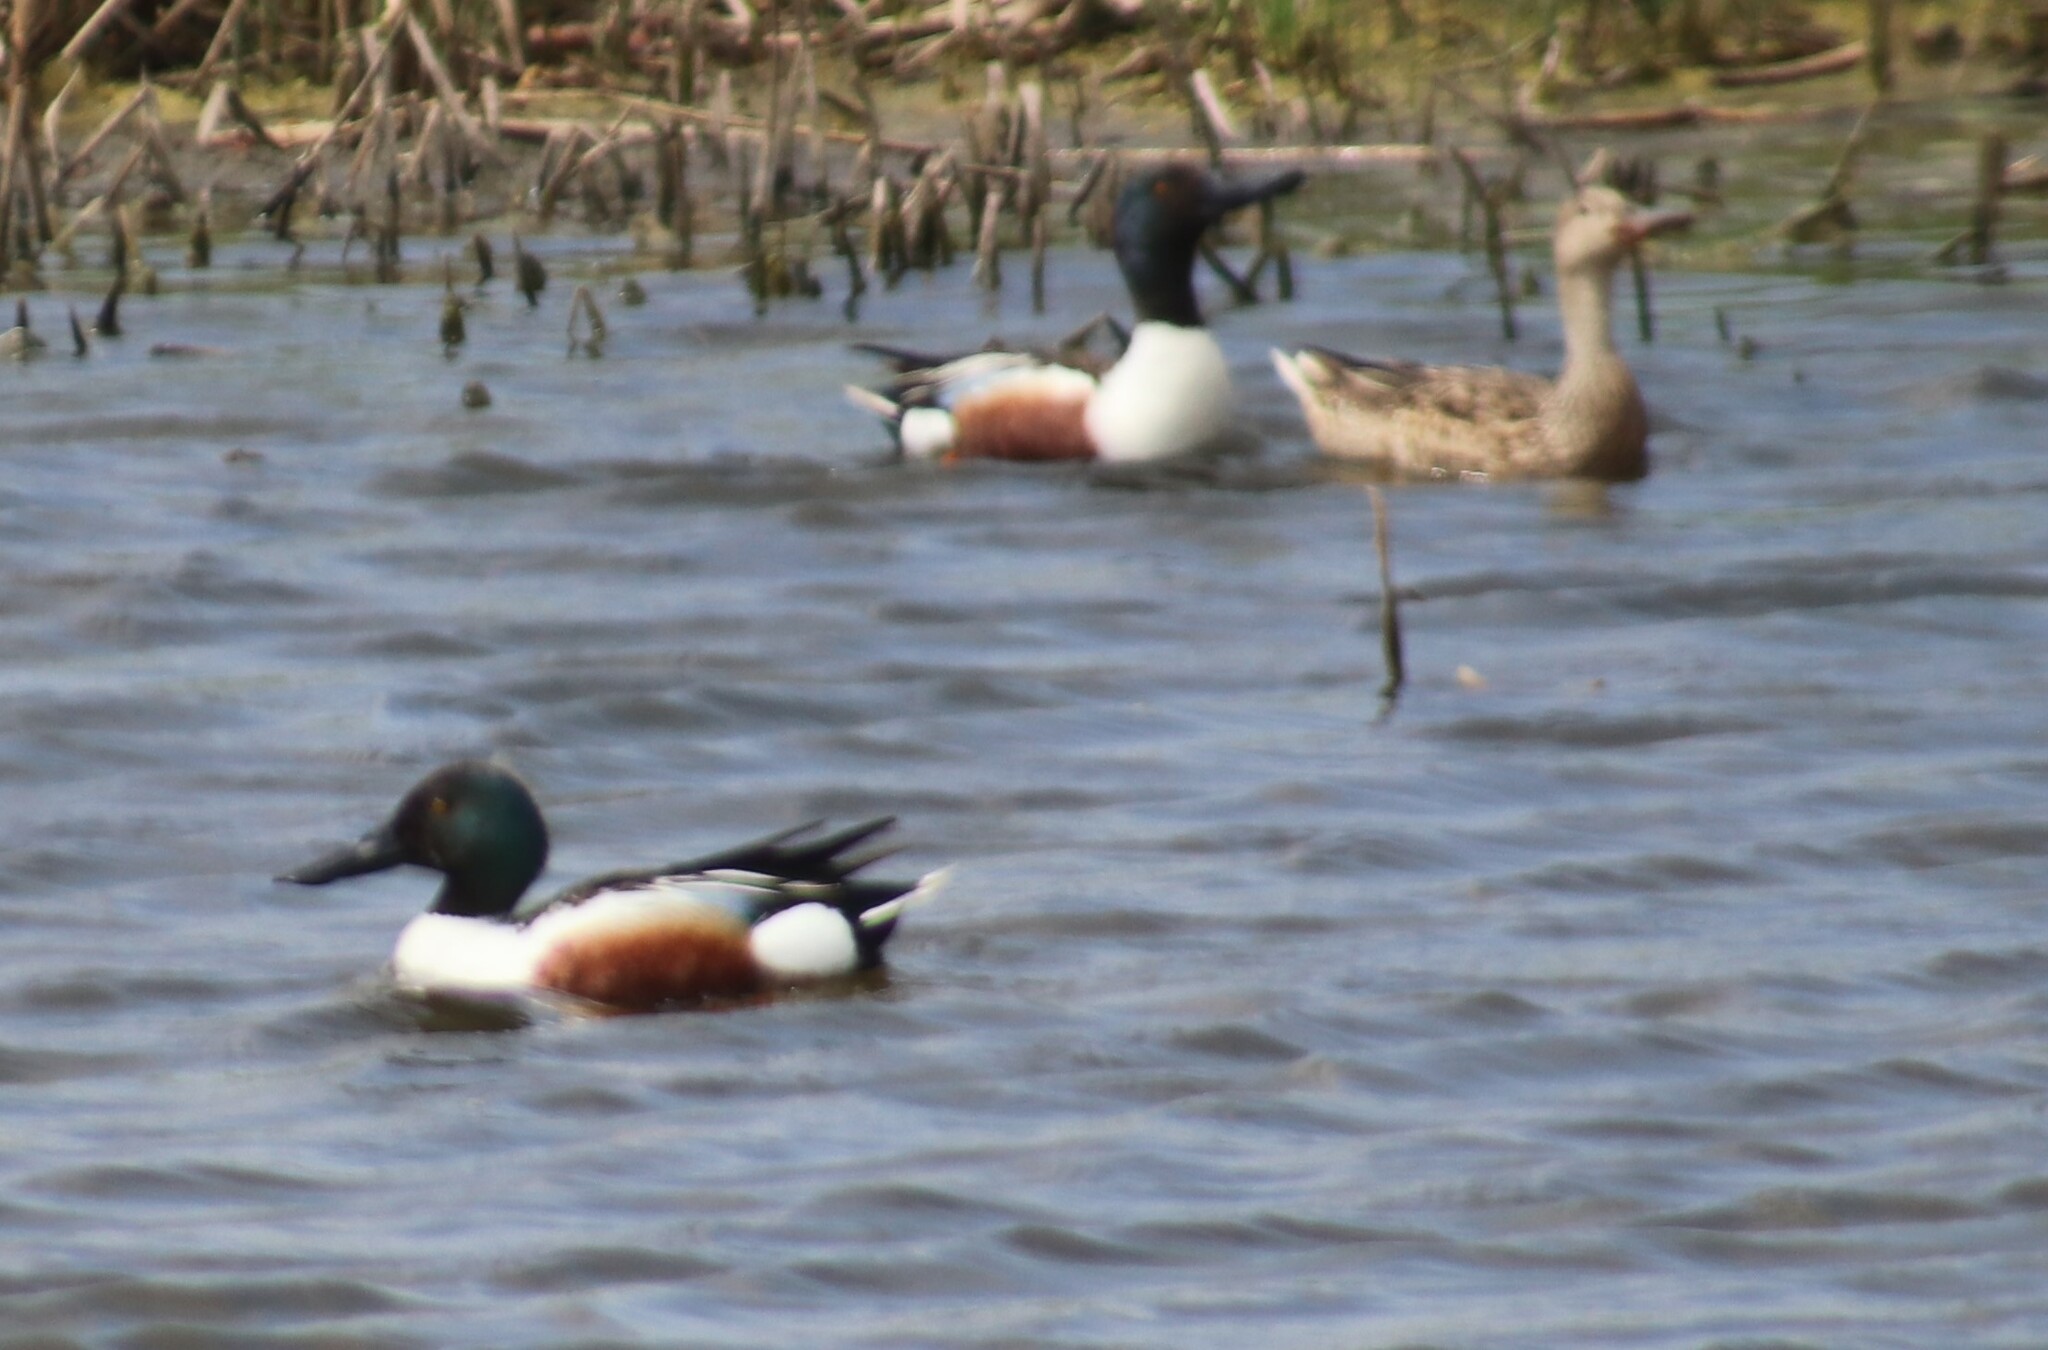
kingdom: Animalia
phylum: Chordata
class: Aves
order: Anseriformes
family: Anatidae
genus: Spatula
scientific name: Spatula clypeata
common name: Northern shoveler
